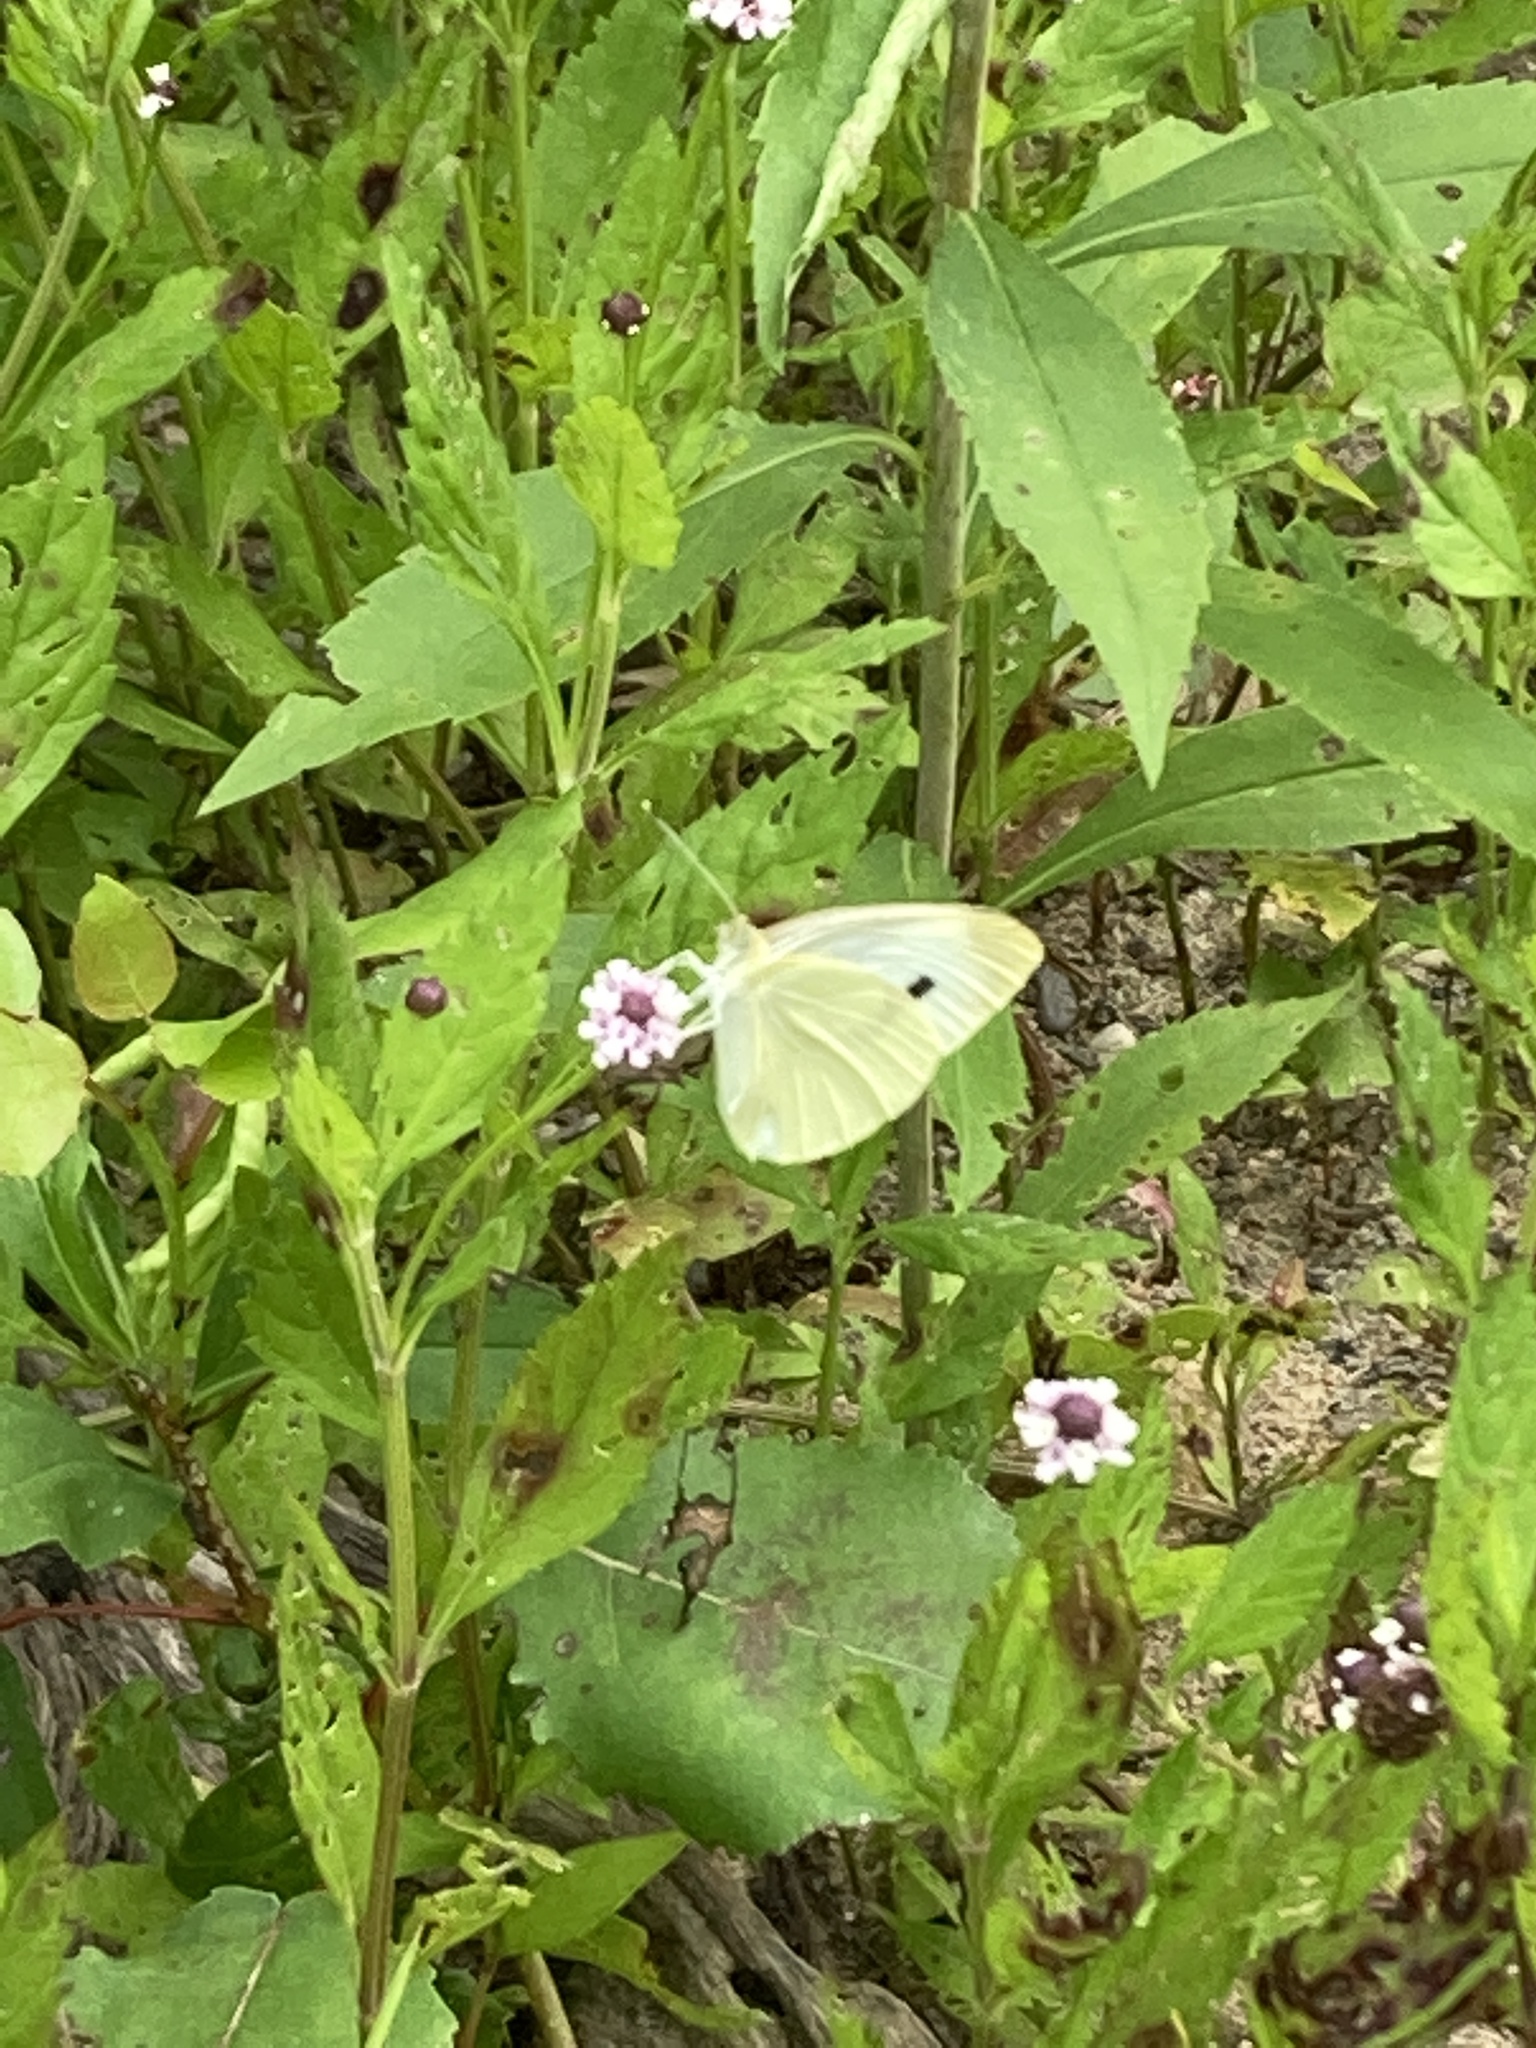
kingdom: Animalia
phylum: Arthropoda
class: Insecta
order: Lepidoptera
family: Pieridae
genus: Pieris
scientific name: Pieris rapae
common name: Small white
